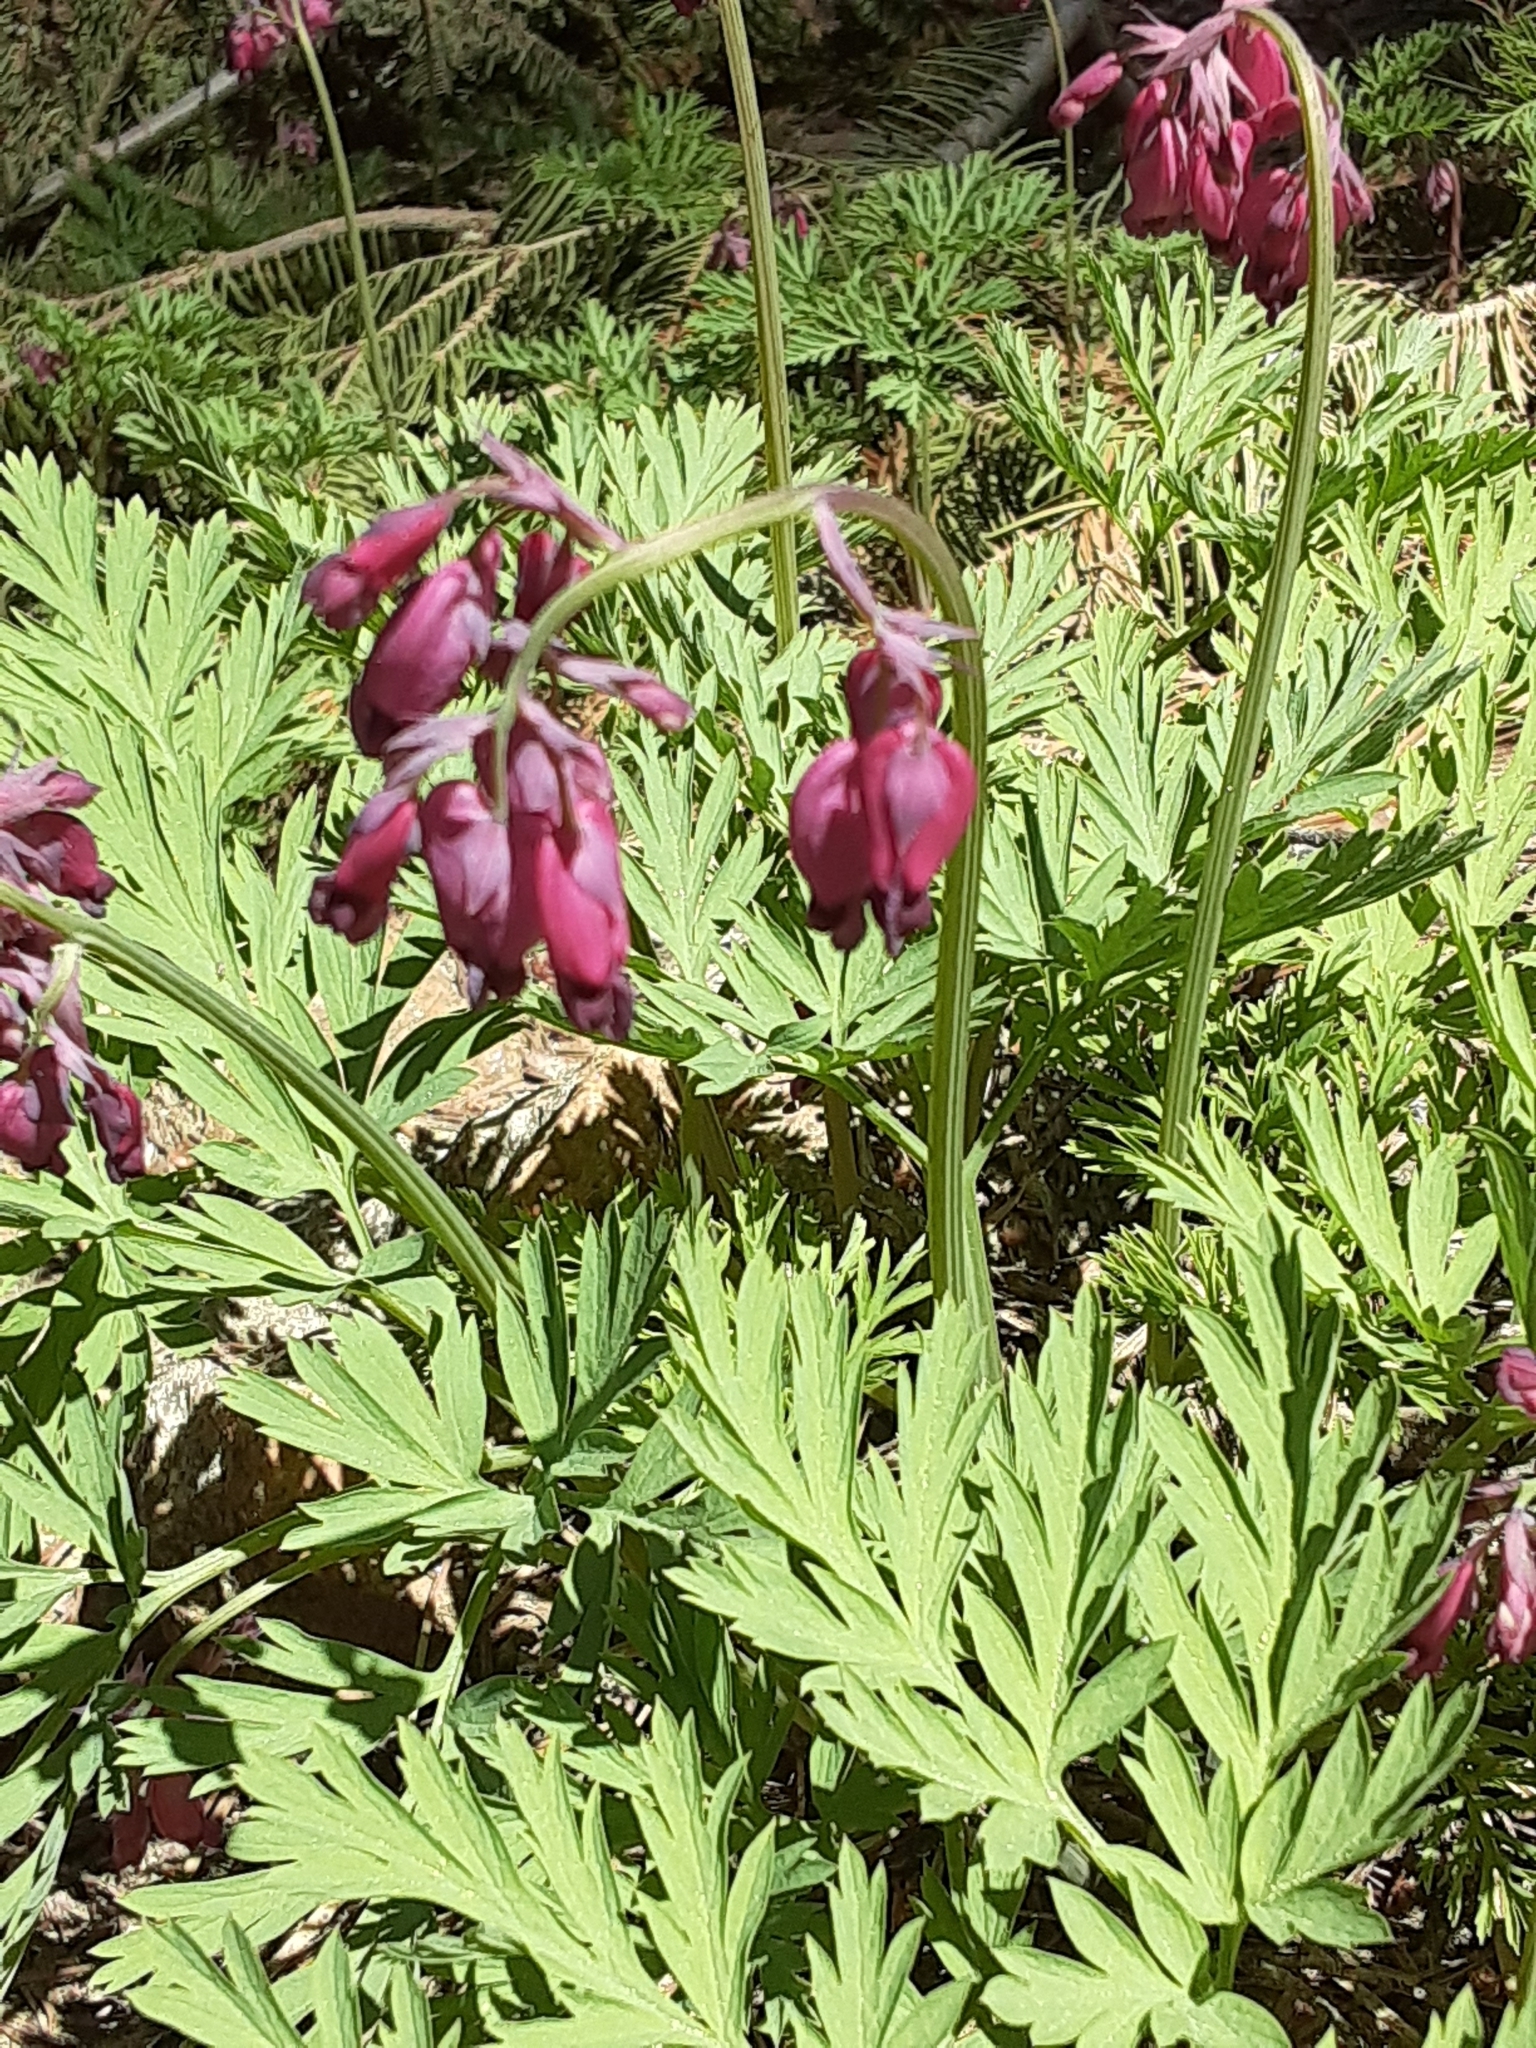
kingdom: Plantae
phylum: Tracheophyta
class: Magnoliopsida
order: Ranunculales
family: Papaveraceae
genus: Dicentra
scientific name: Dicentra formosa
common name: Bleeding-heart
